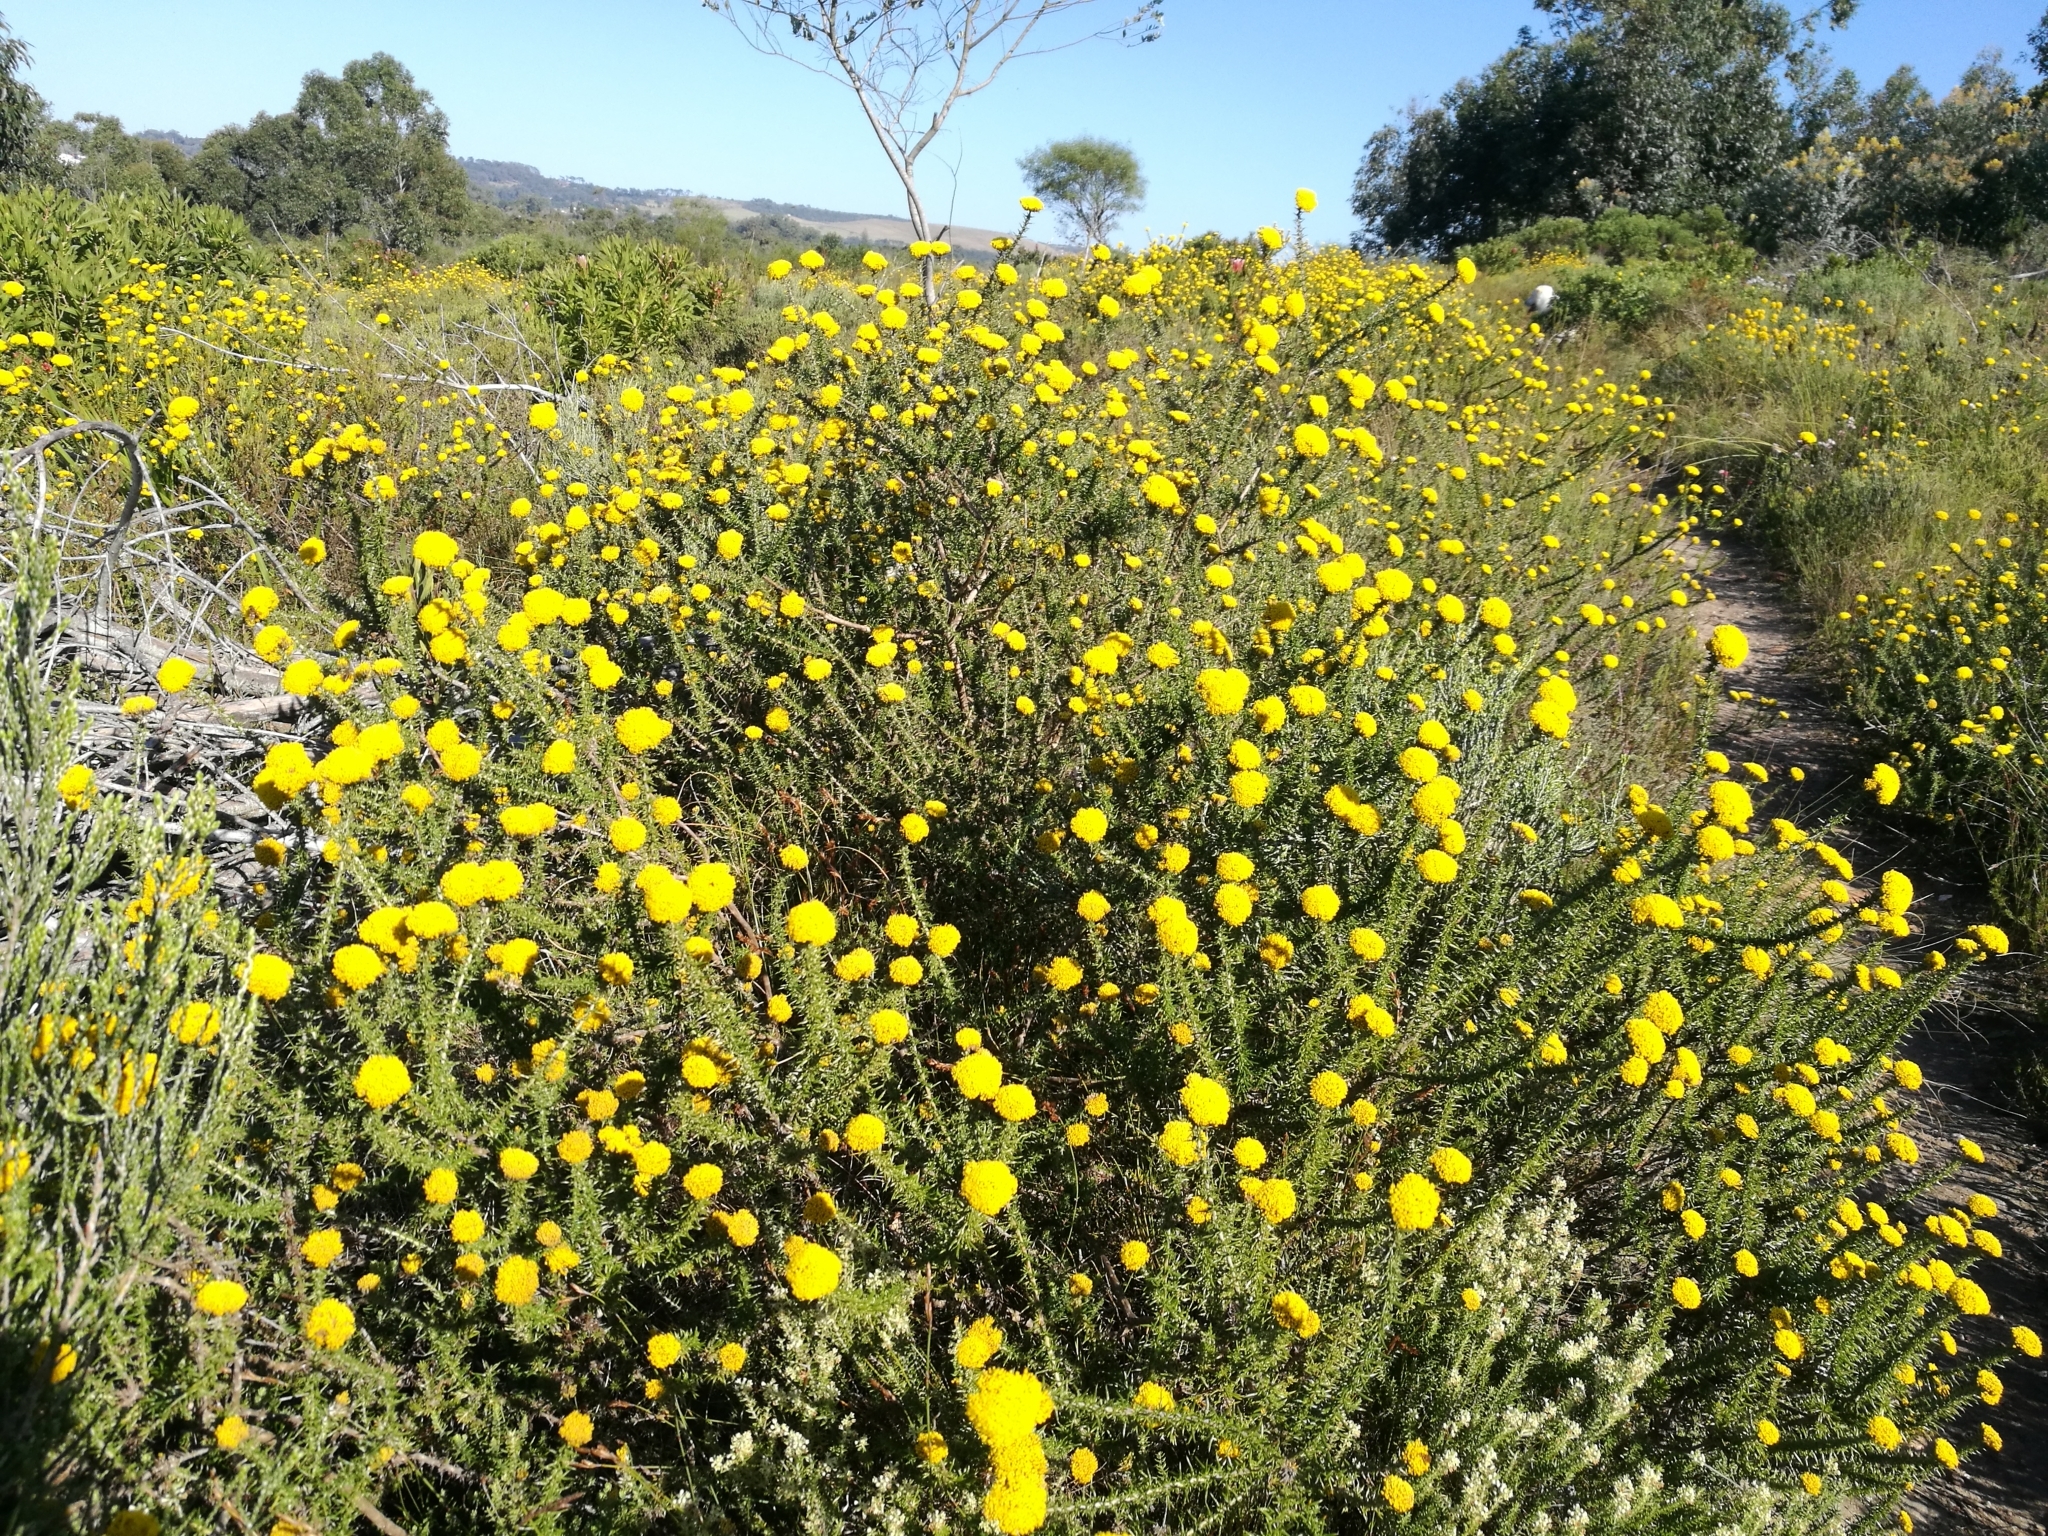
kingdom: Plantae
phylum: Tracheophyta
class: Magnoliopsida
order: Asterales
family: Asteraceae
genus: Metalasia
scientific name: Metalasia aurea
